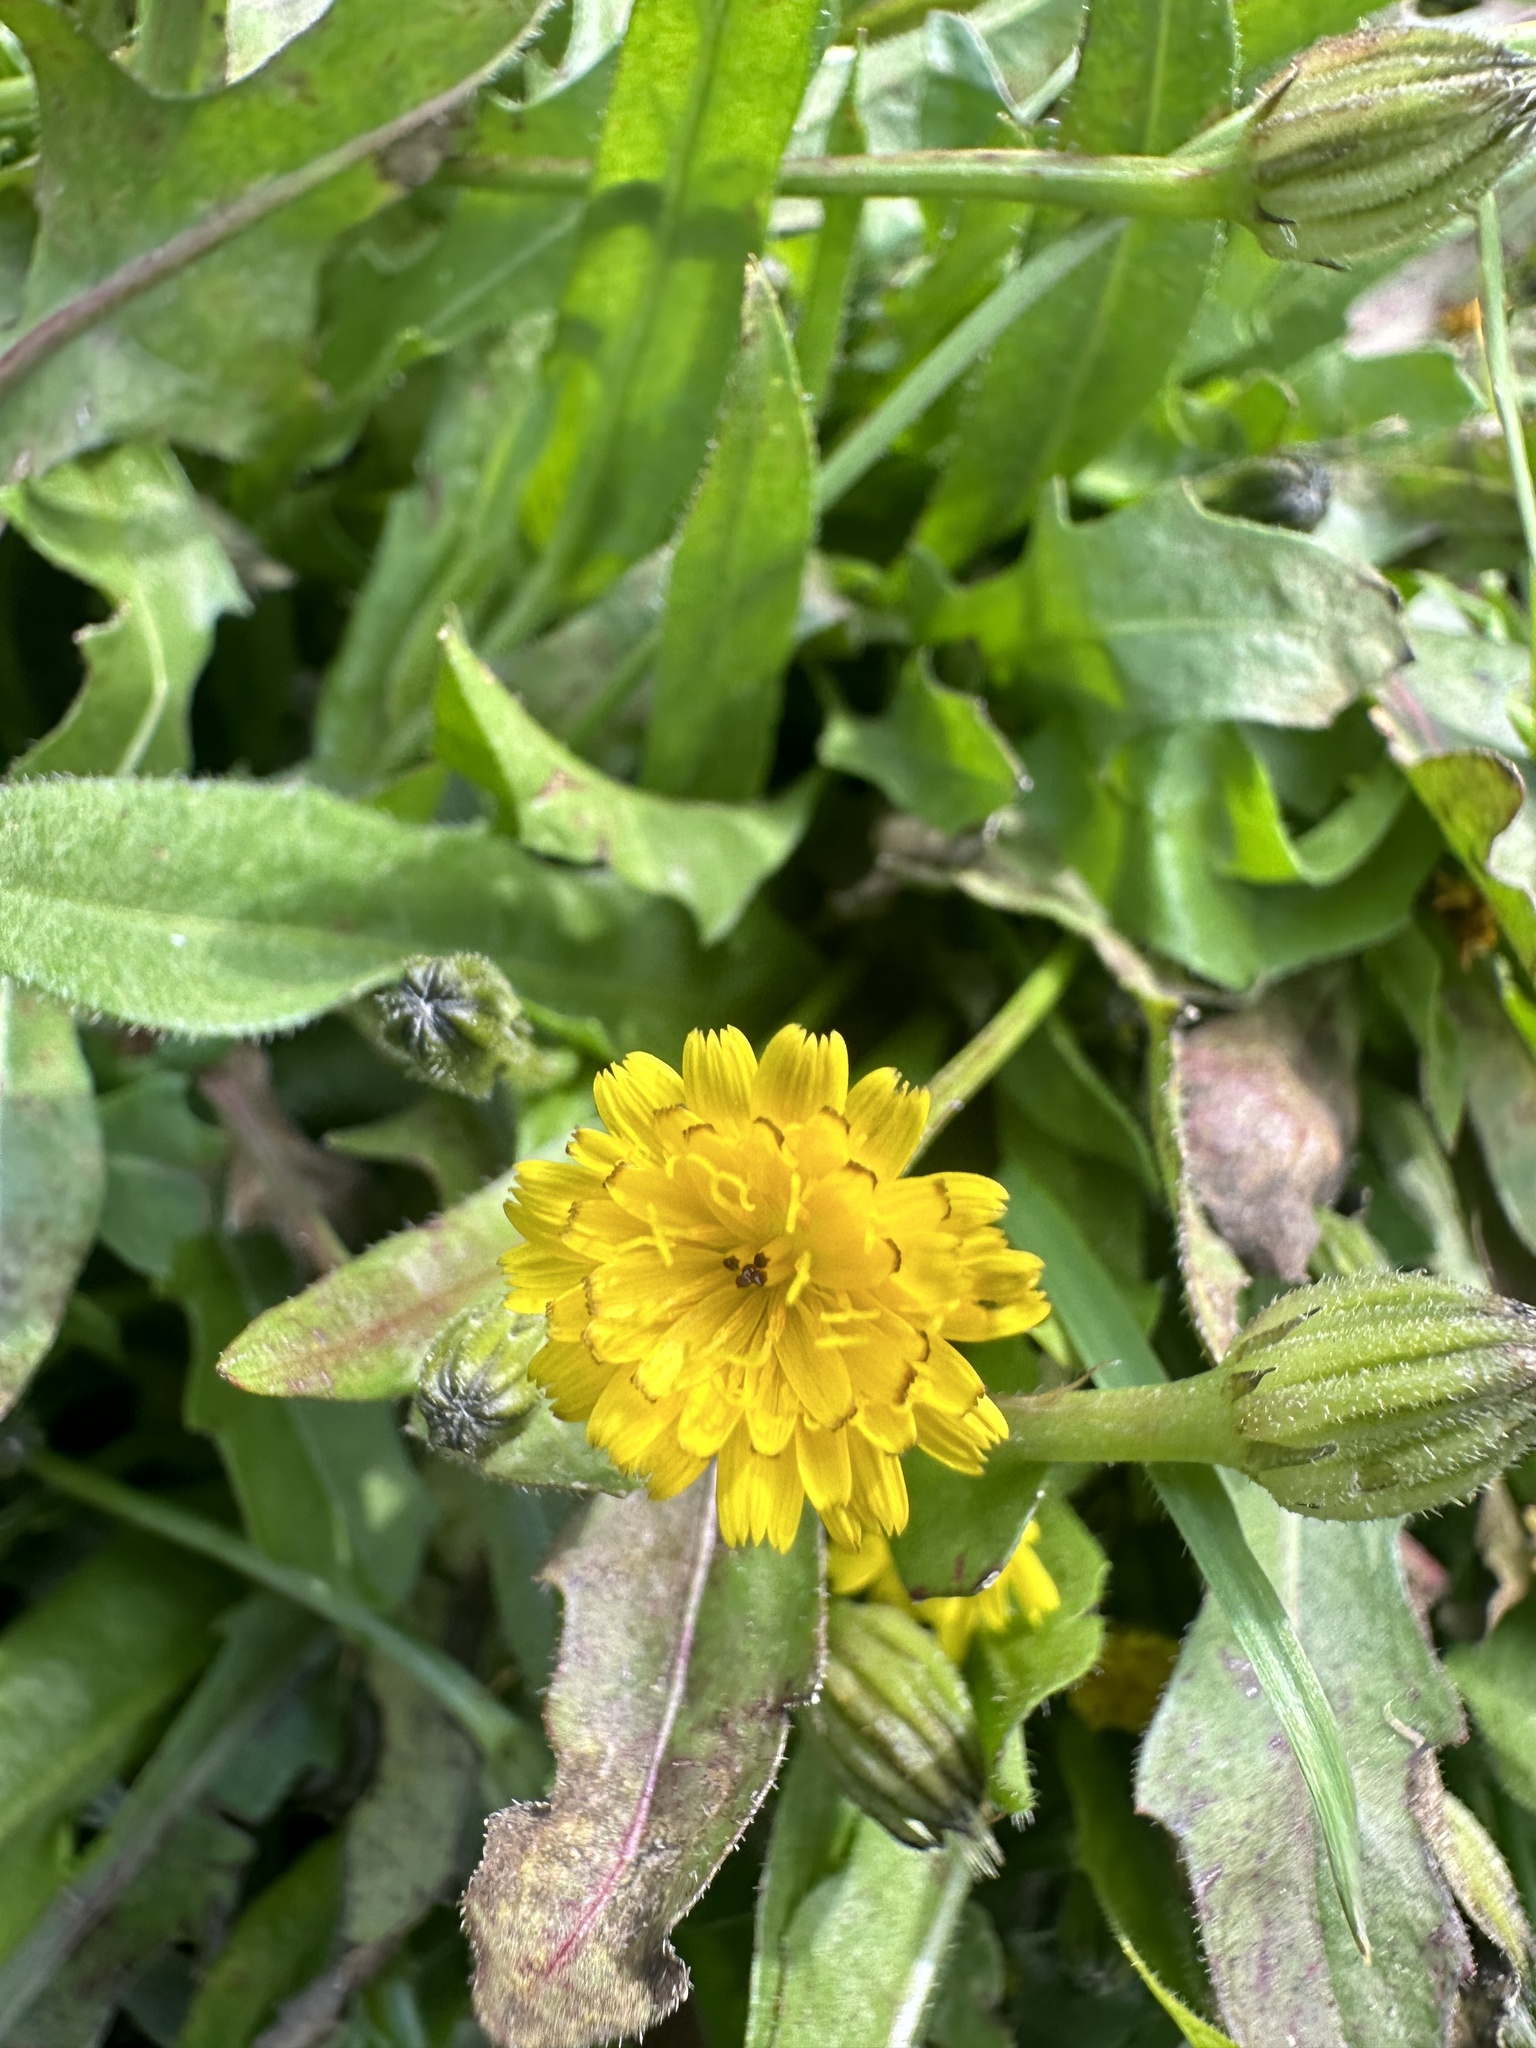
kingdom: Plantae
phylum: Tracheophyta
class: Magnoliopsida
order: Asterales
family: Asteraceae
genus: Hedypnois
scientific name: Hedypnois rhagadioloides
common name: Cretan weed
